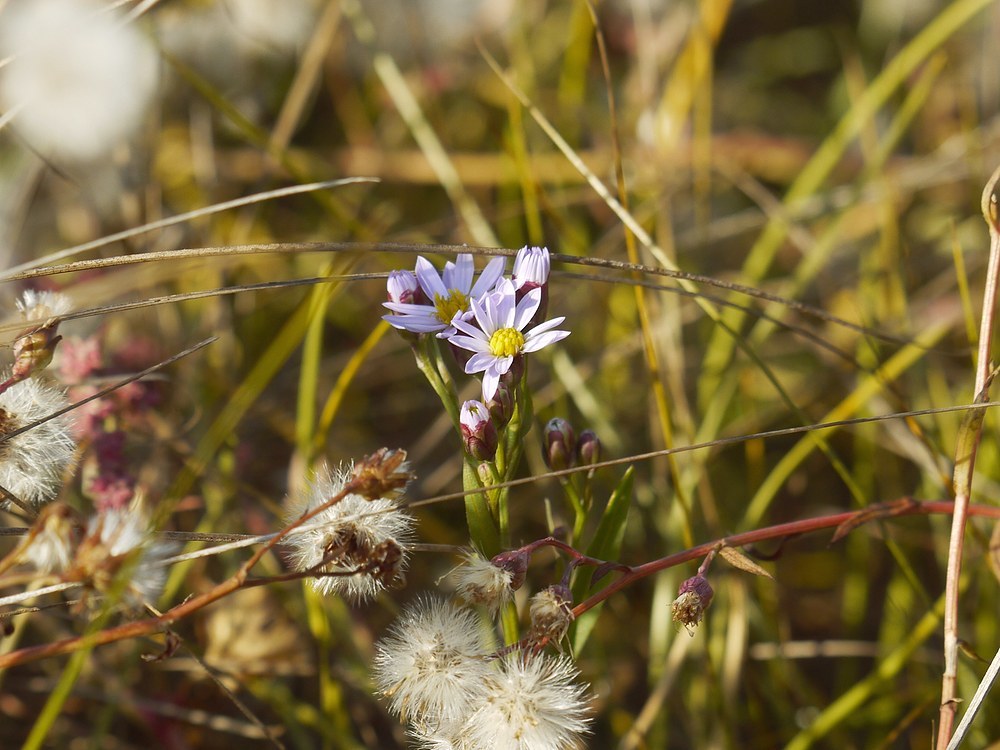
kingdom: Plantae
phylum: Tracheophyta
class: Magnoliopsida
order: Asterales
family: Asteraceae
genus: Tripolium
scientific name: Tripolium pannonicum
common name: Sea aster
